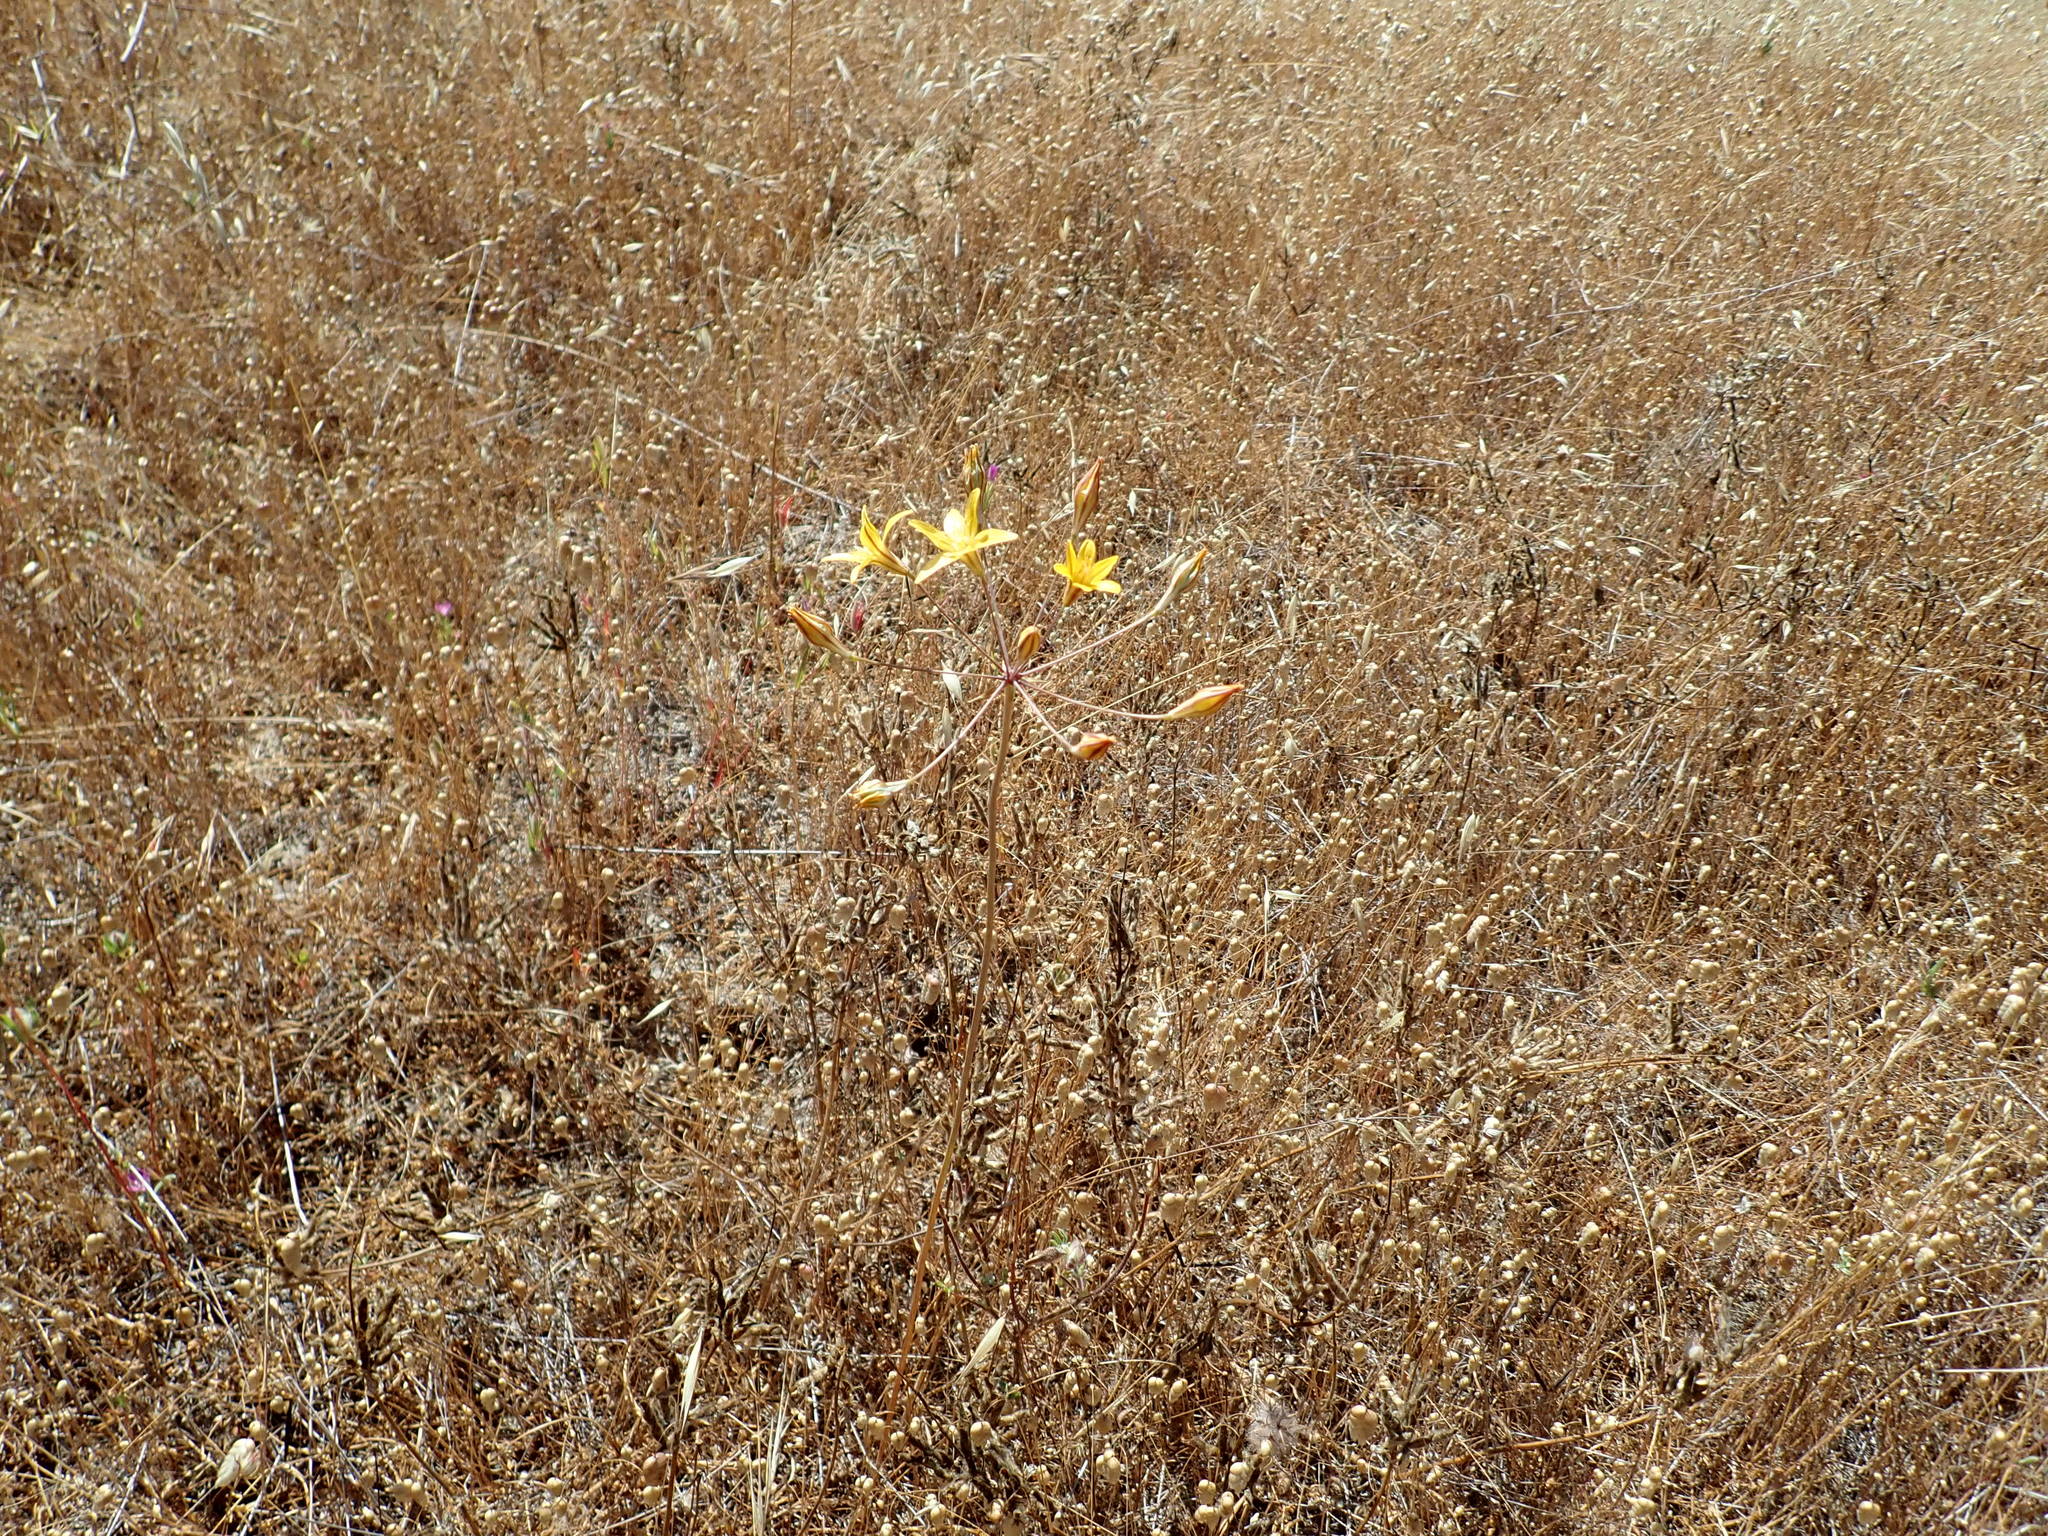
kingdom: Plantae
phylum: Tracheophyta
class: Liliopsida
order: Asparagales
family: Asparagaceae
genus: Triteleia
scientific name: Triteleia ixioides
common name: Yellow-brodiaea
